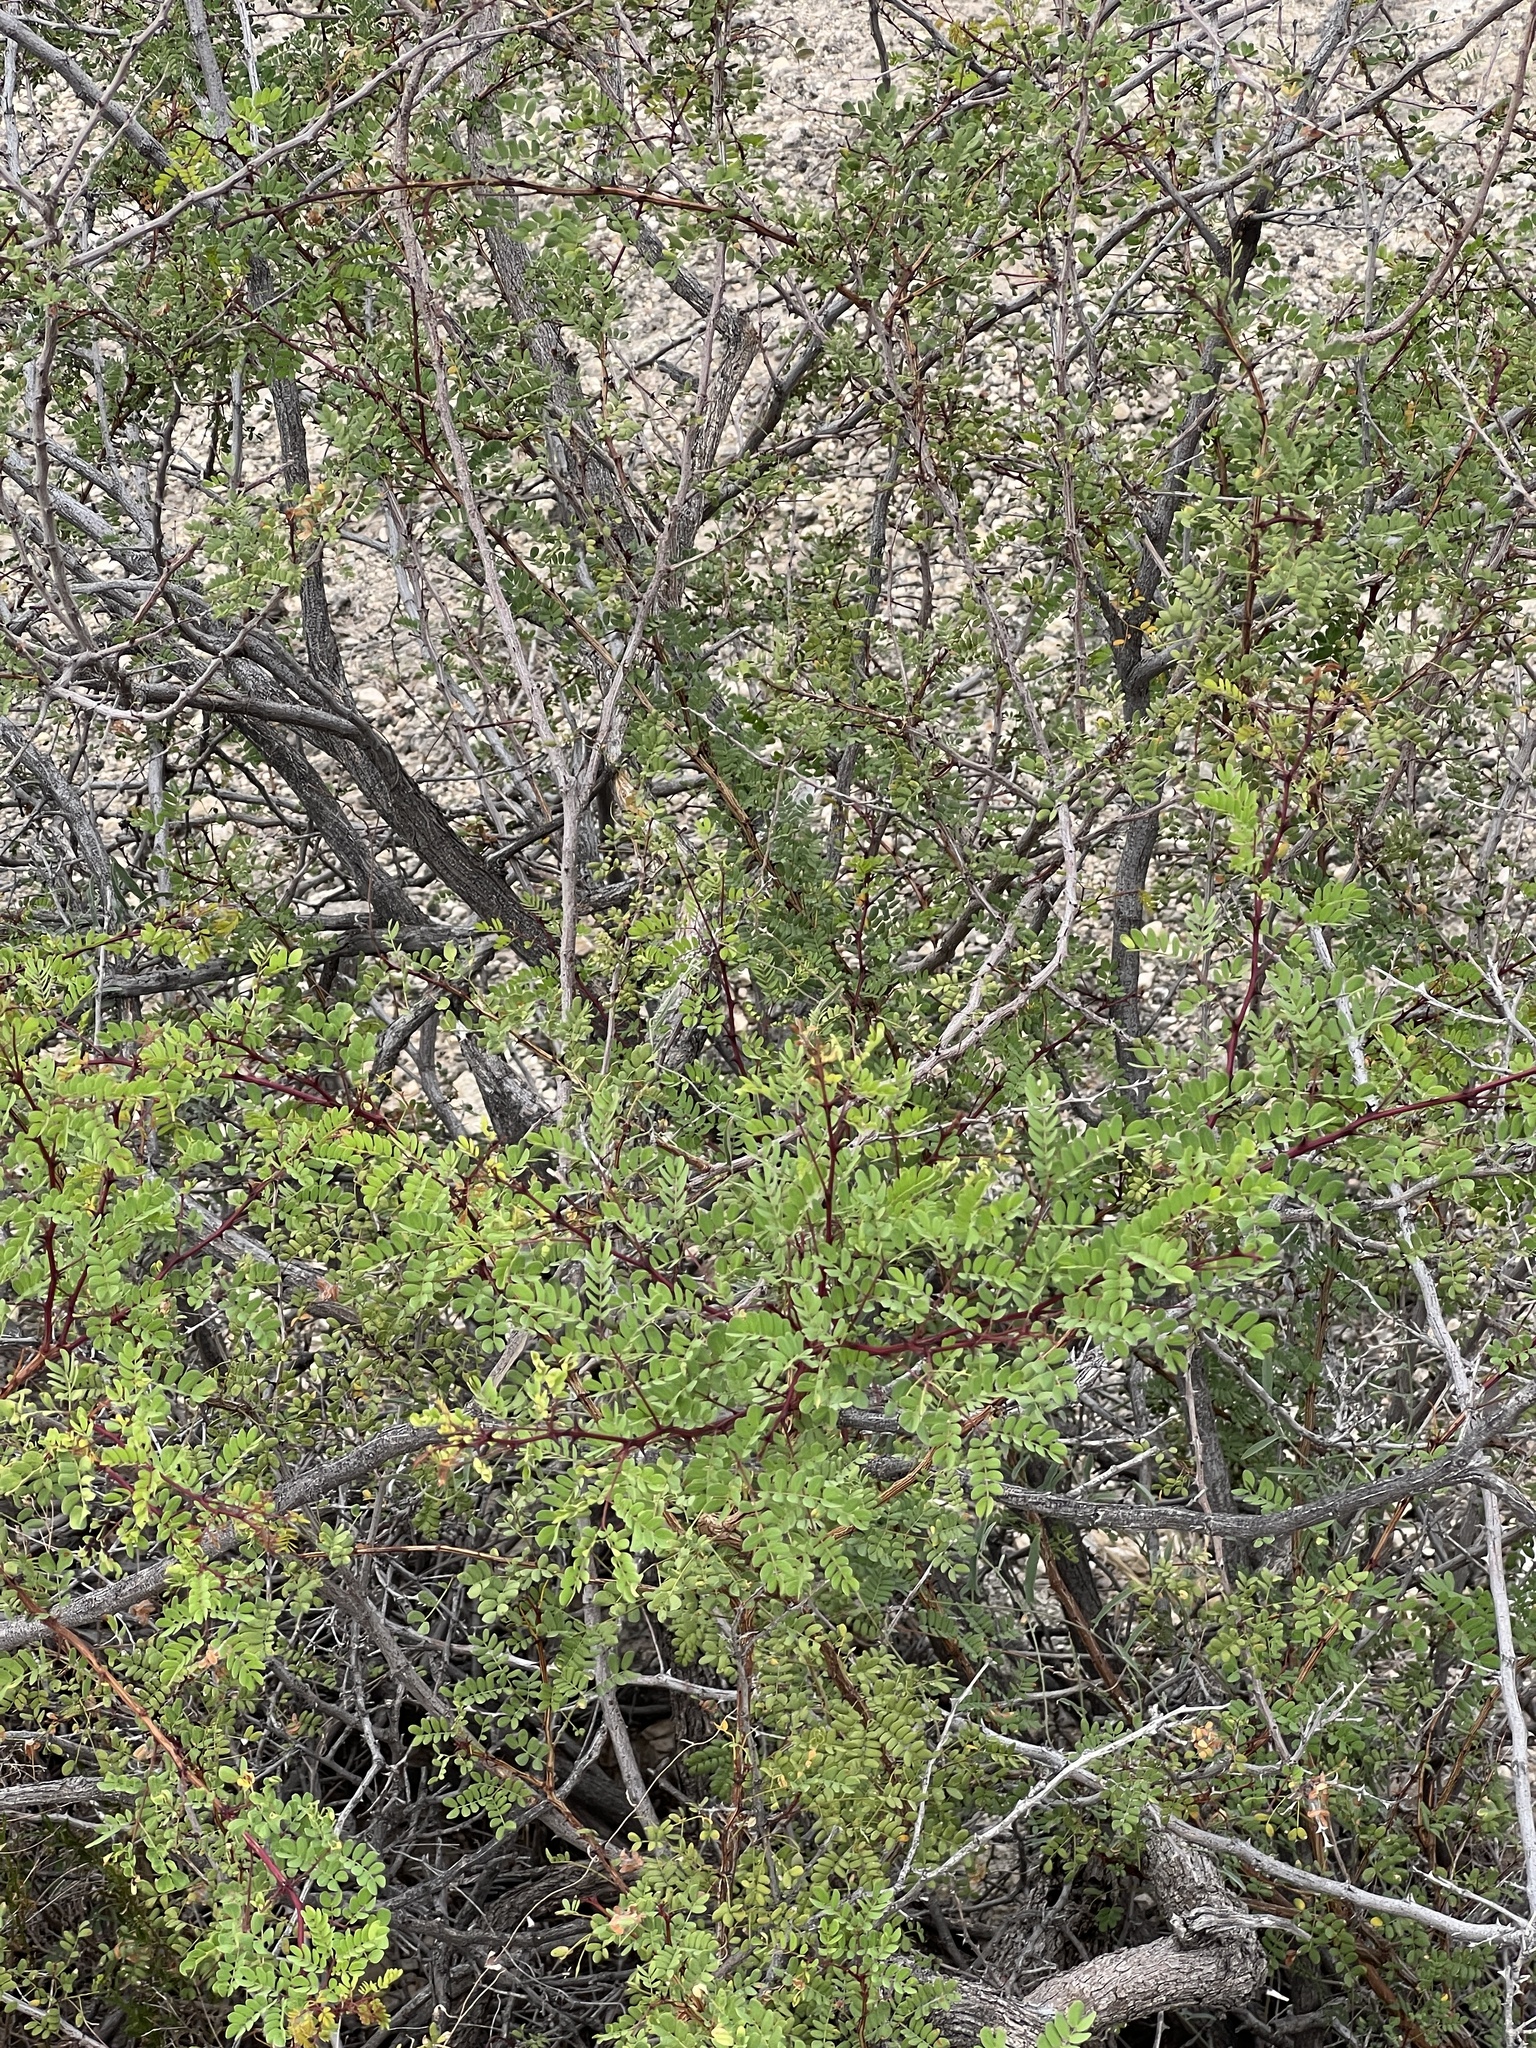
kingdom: Plantae
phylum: Tracheophyta
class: Magnoliopsida
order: Fabales
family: Fabaceae
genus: Senegalia
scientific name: Senegalia roemeriana
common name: Roemer's acacia
